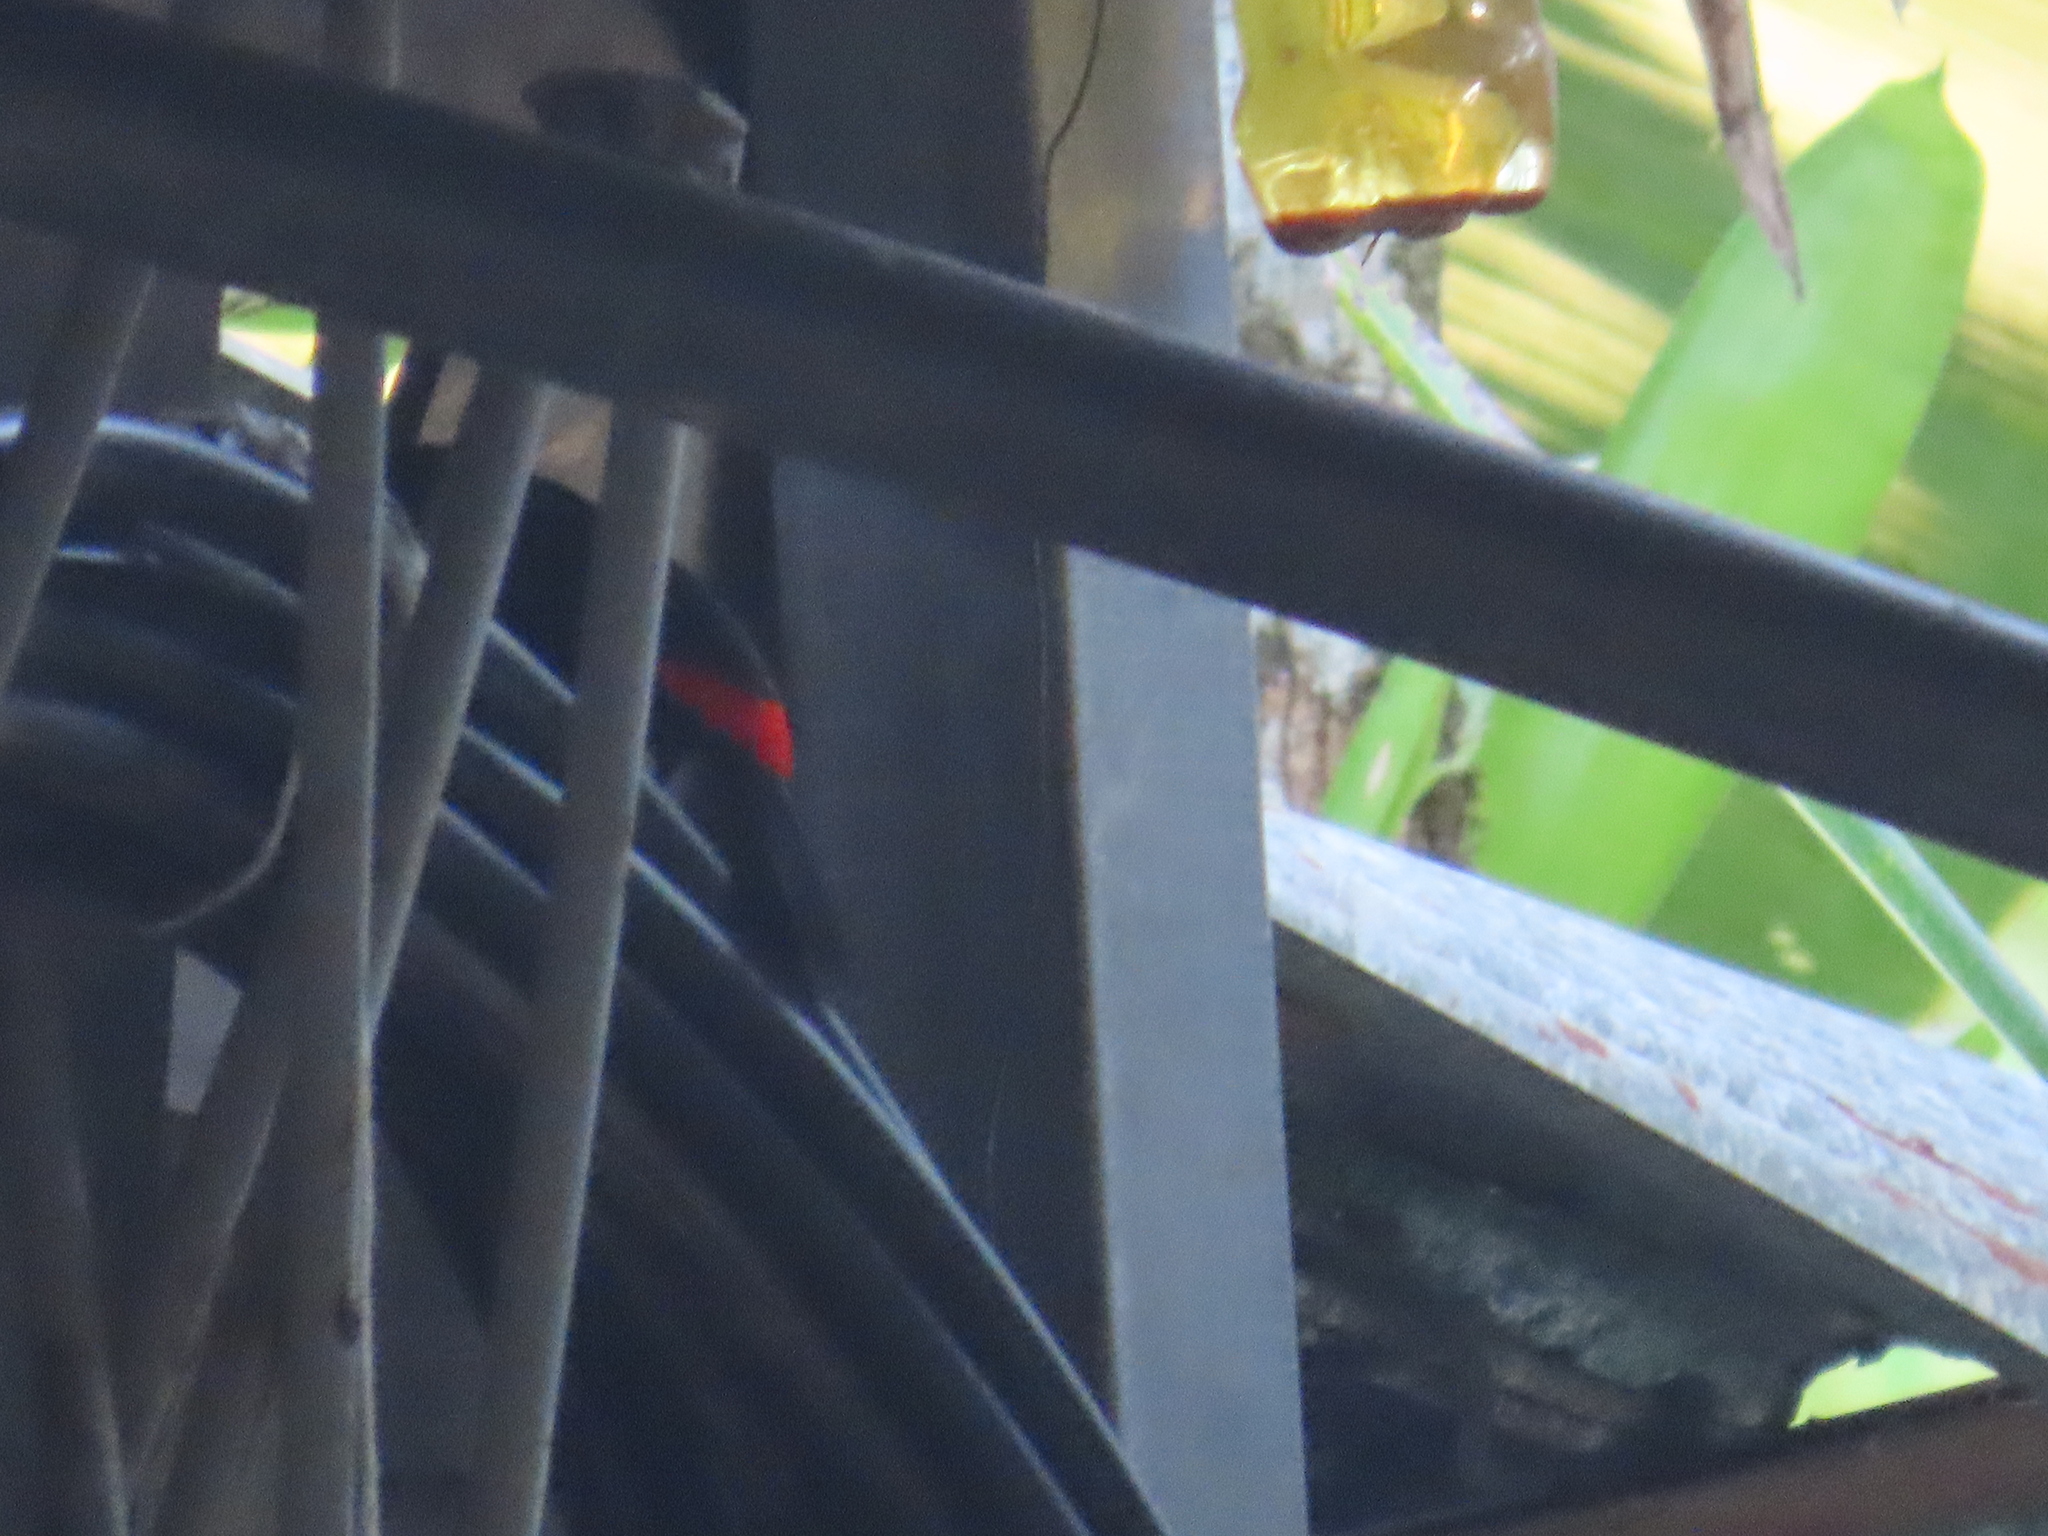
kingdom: Animalia
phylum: Chordata
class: Aves
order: Passeriformes
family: Thraupidae
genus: Ramphocelus
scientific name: Ramphocelus passerinii
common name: Passerini's tanager
